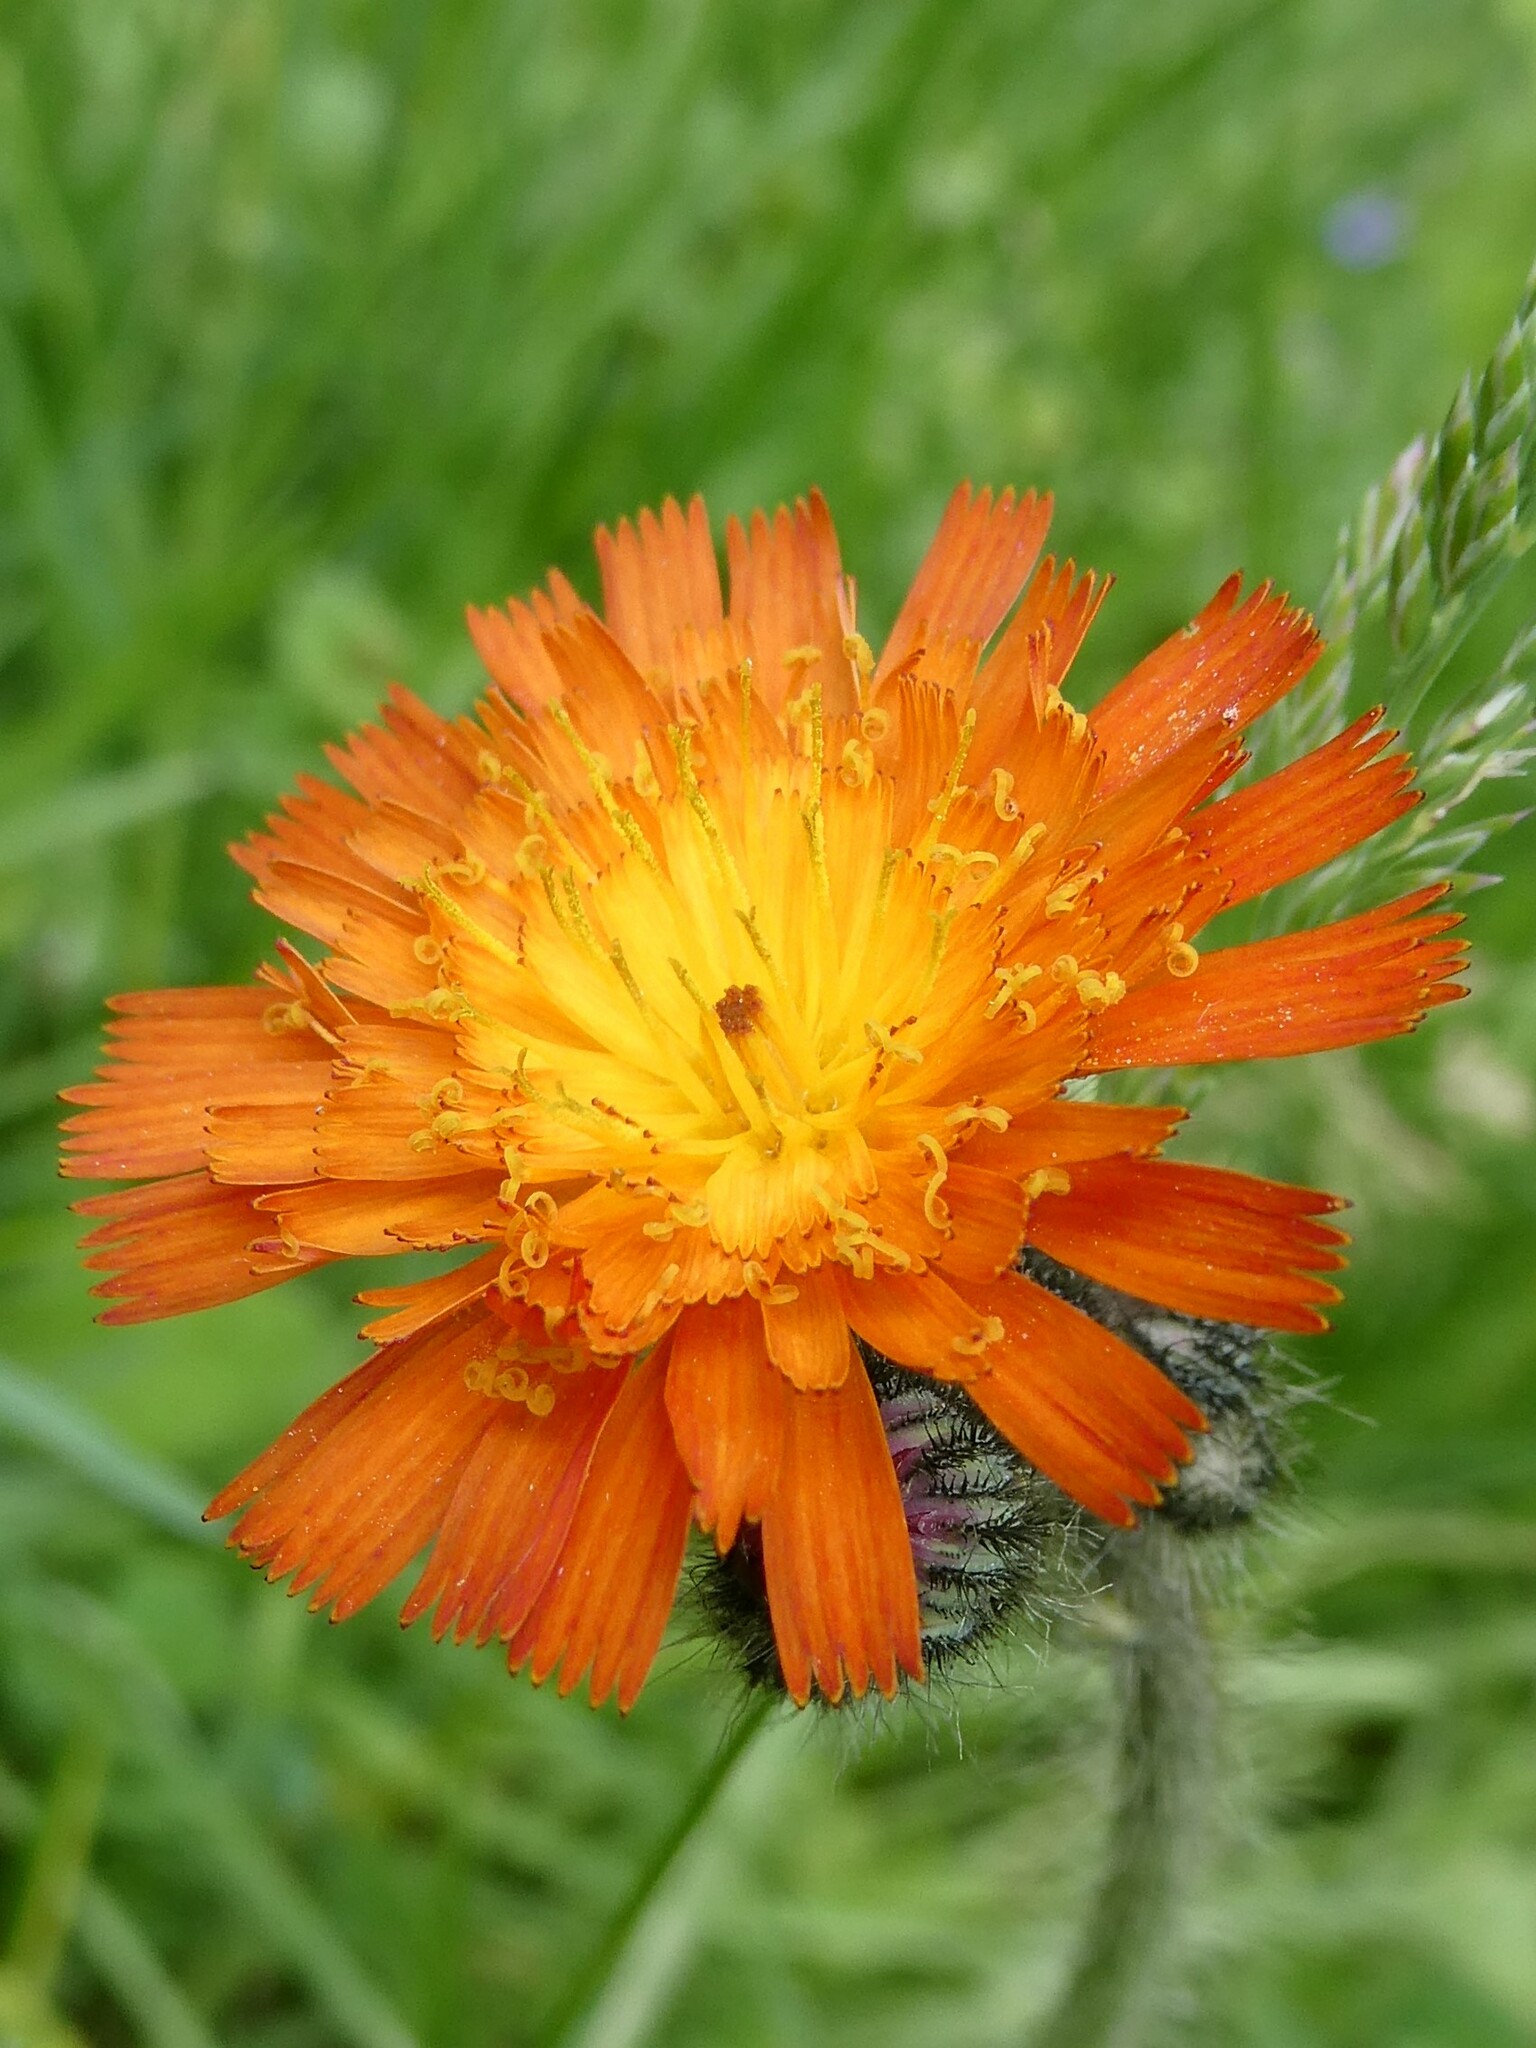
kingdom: Plantae
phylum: Tracheophyta
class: Magnoliopsida
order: Asterales
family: Asteraceae
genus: Pilosella
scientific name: Pilosella aurantiaca
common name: Fox-and-cubs
